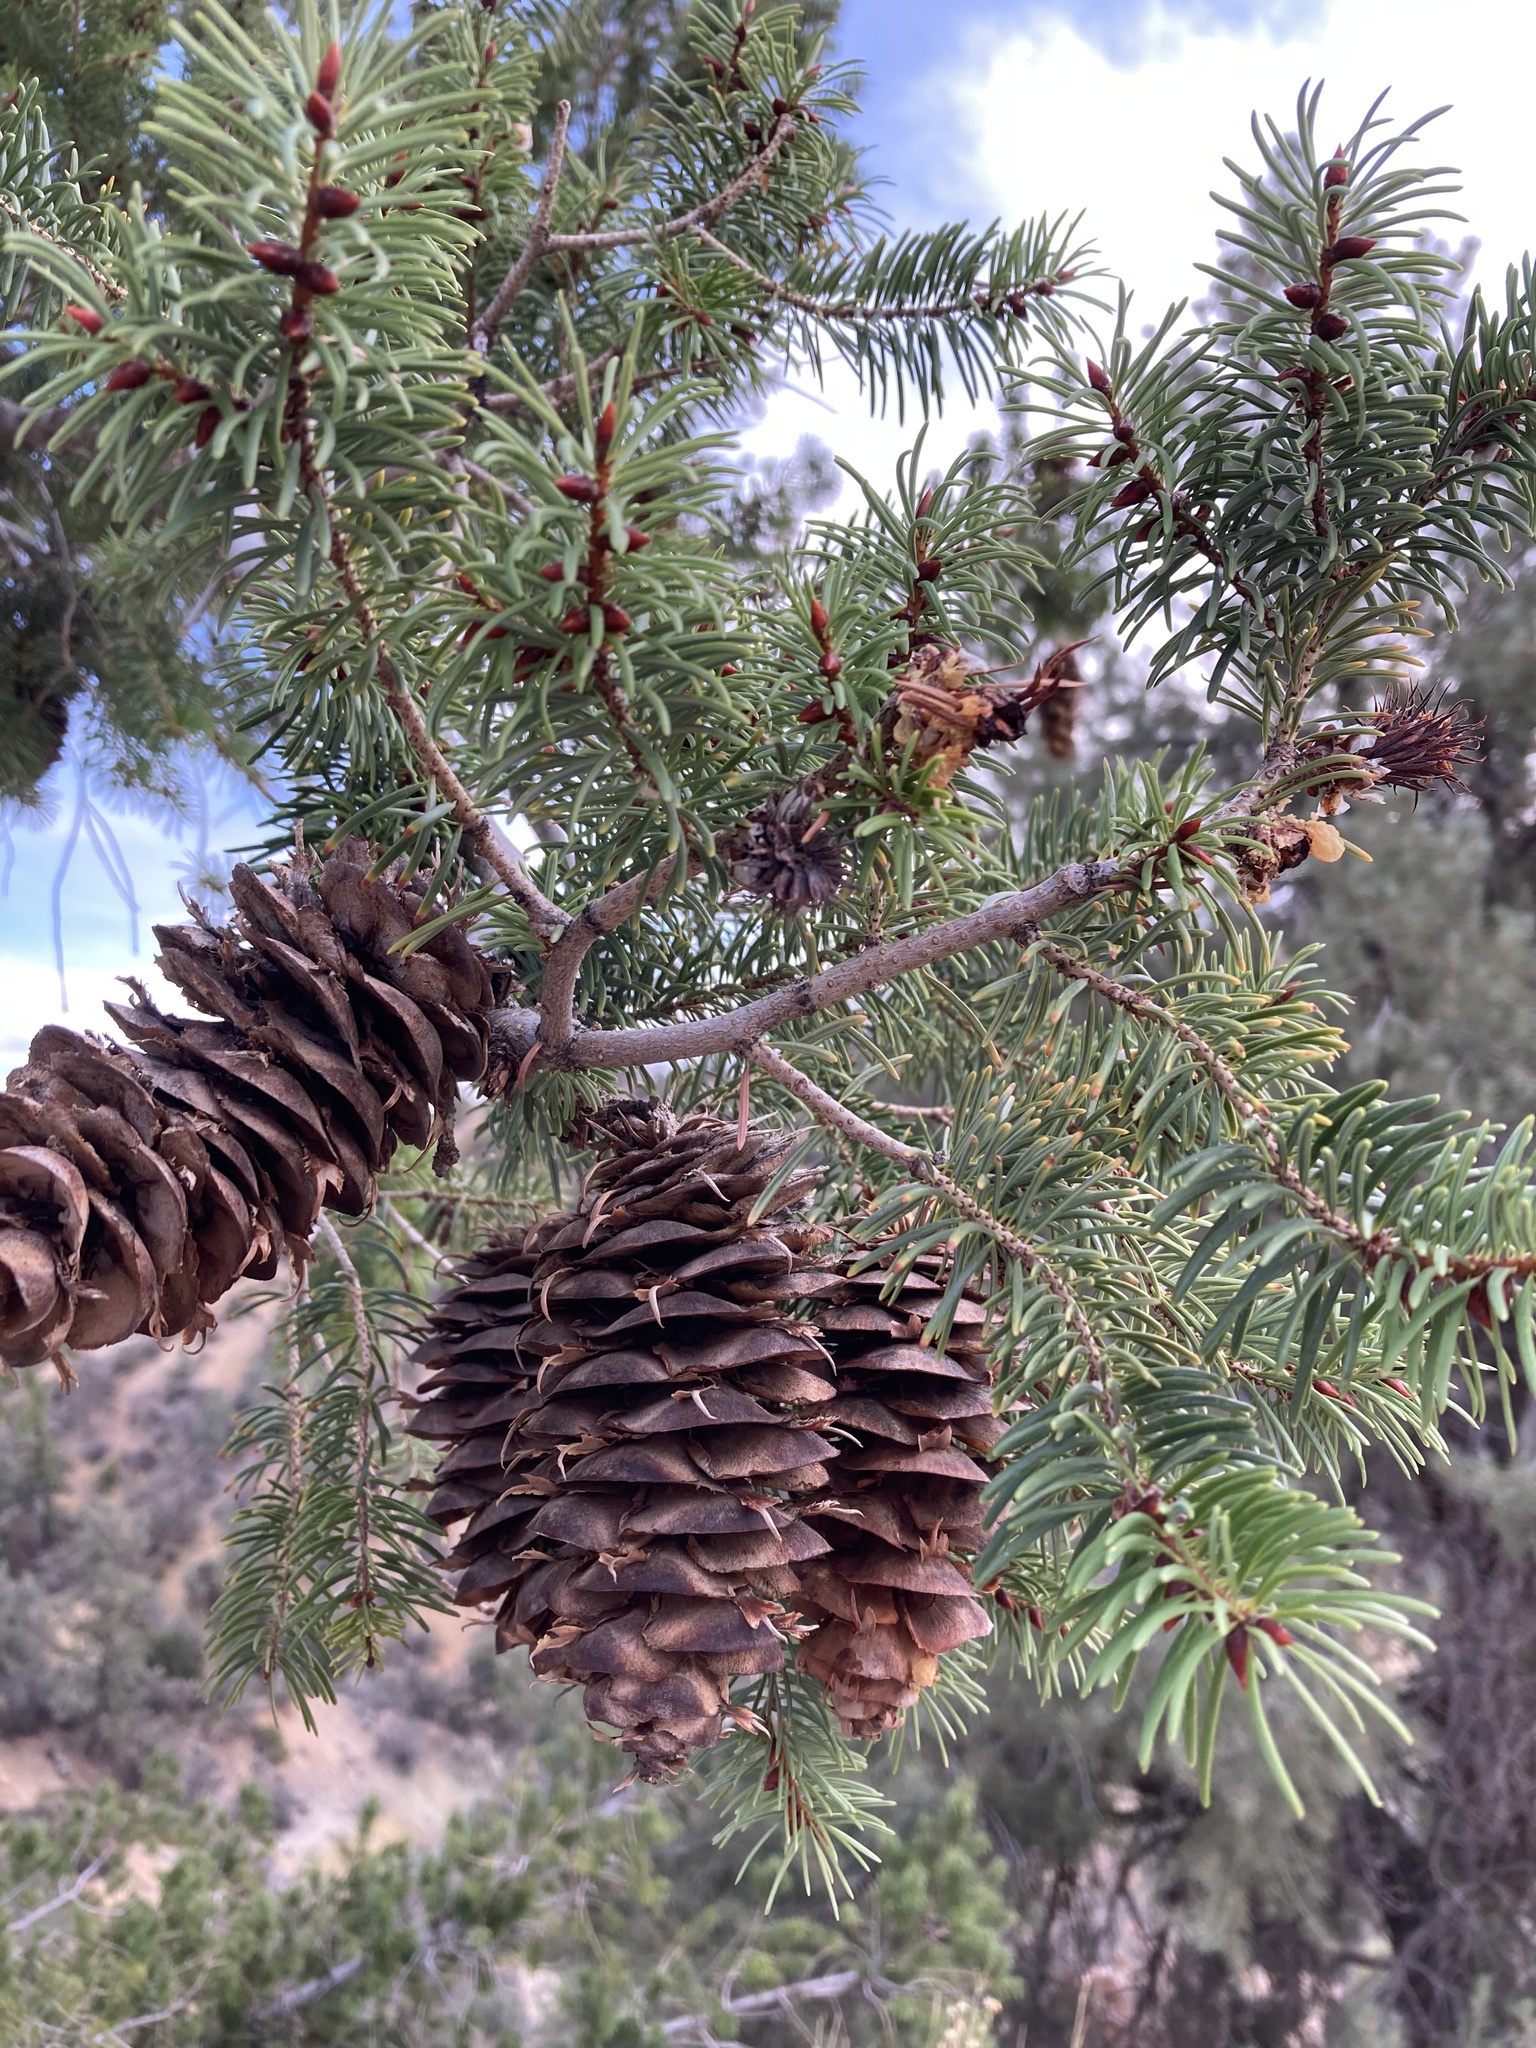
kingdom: Plantae
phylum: Tracheophyta
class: Pinopsida
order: Pinales
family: Pinaceae
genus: Pseudotsuga
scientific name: Pseudotsuga macrocarpa
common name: Big-cone douglas-fir
